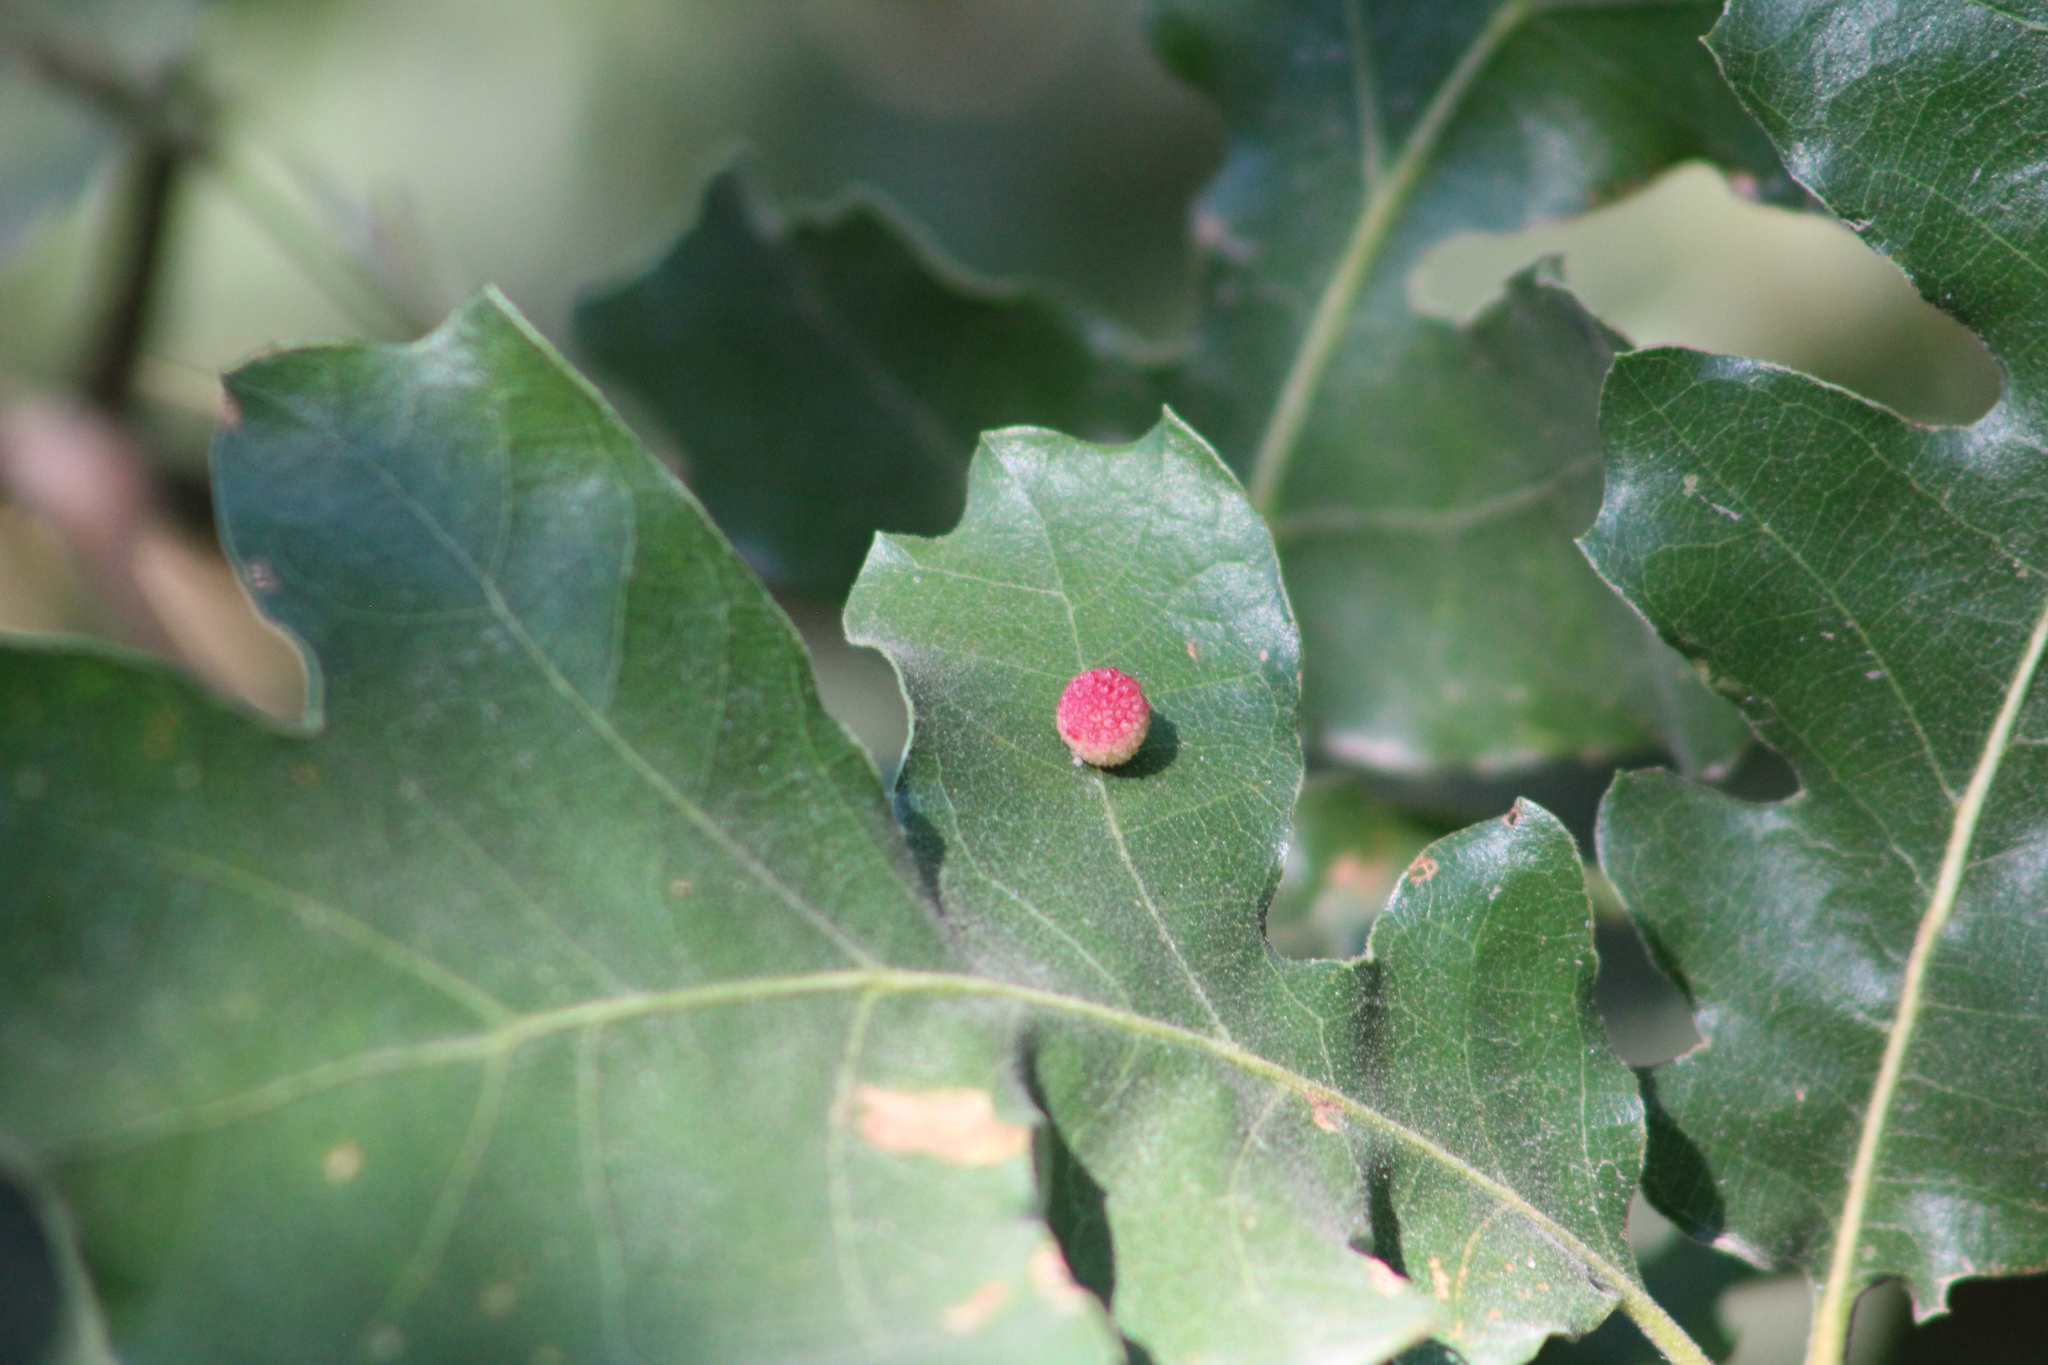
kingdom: Animalia
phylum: Arthropoda
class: Insecta
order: Hymenoptera
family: Cynipidae
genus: Acraspis
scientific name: Acraspis quercushirta
